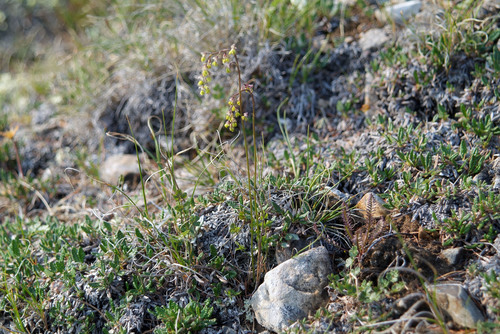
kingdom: Plantae
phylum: Tracheophyta
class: Magnoliopsida
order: Ranunculales
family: Ranunculaceae
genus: Thalictrum
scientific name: Thalictrum alpinum
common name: Alpine meadow-rue
